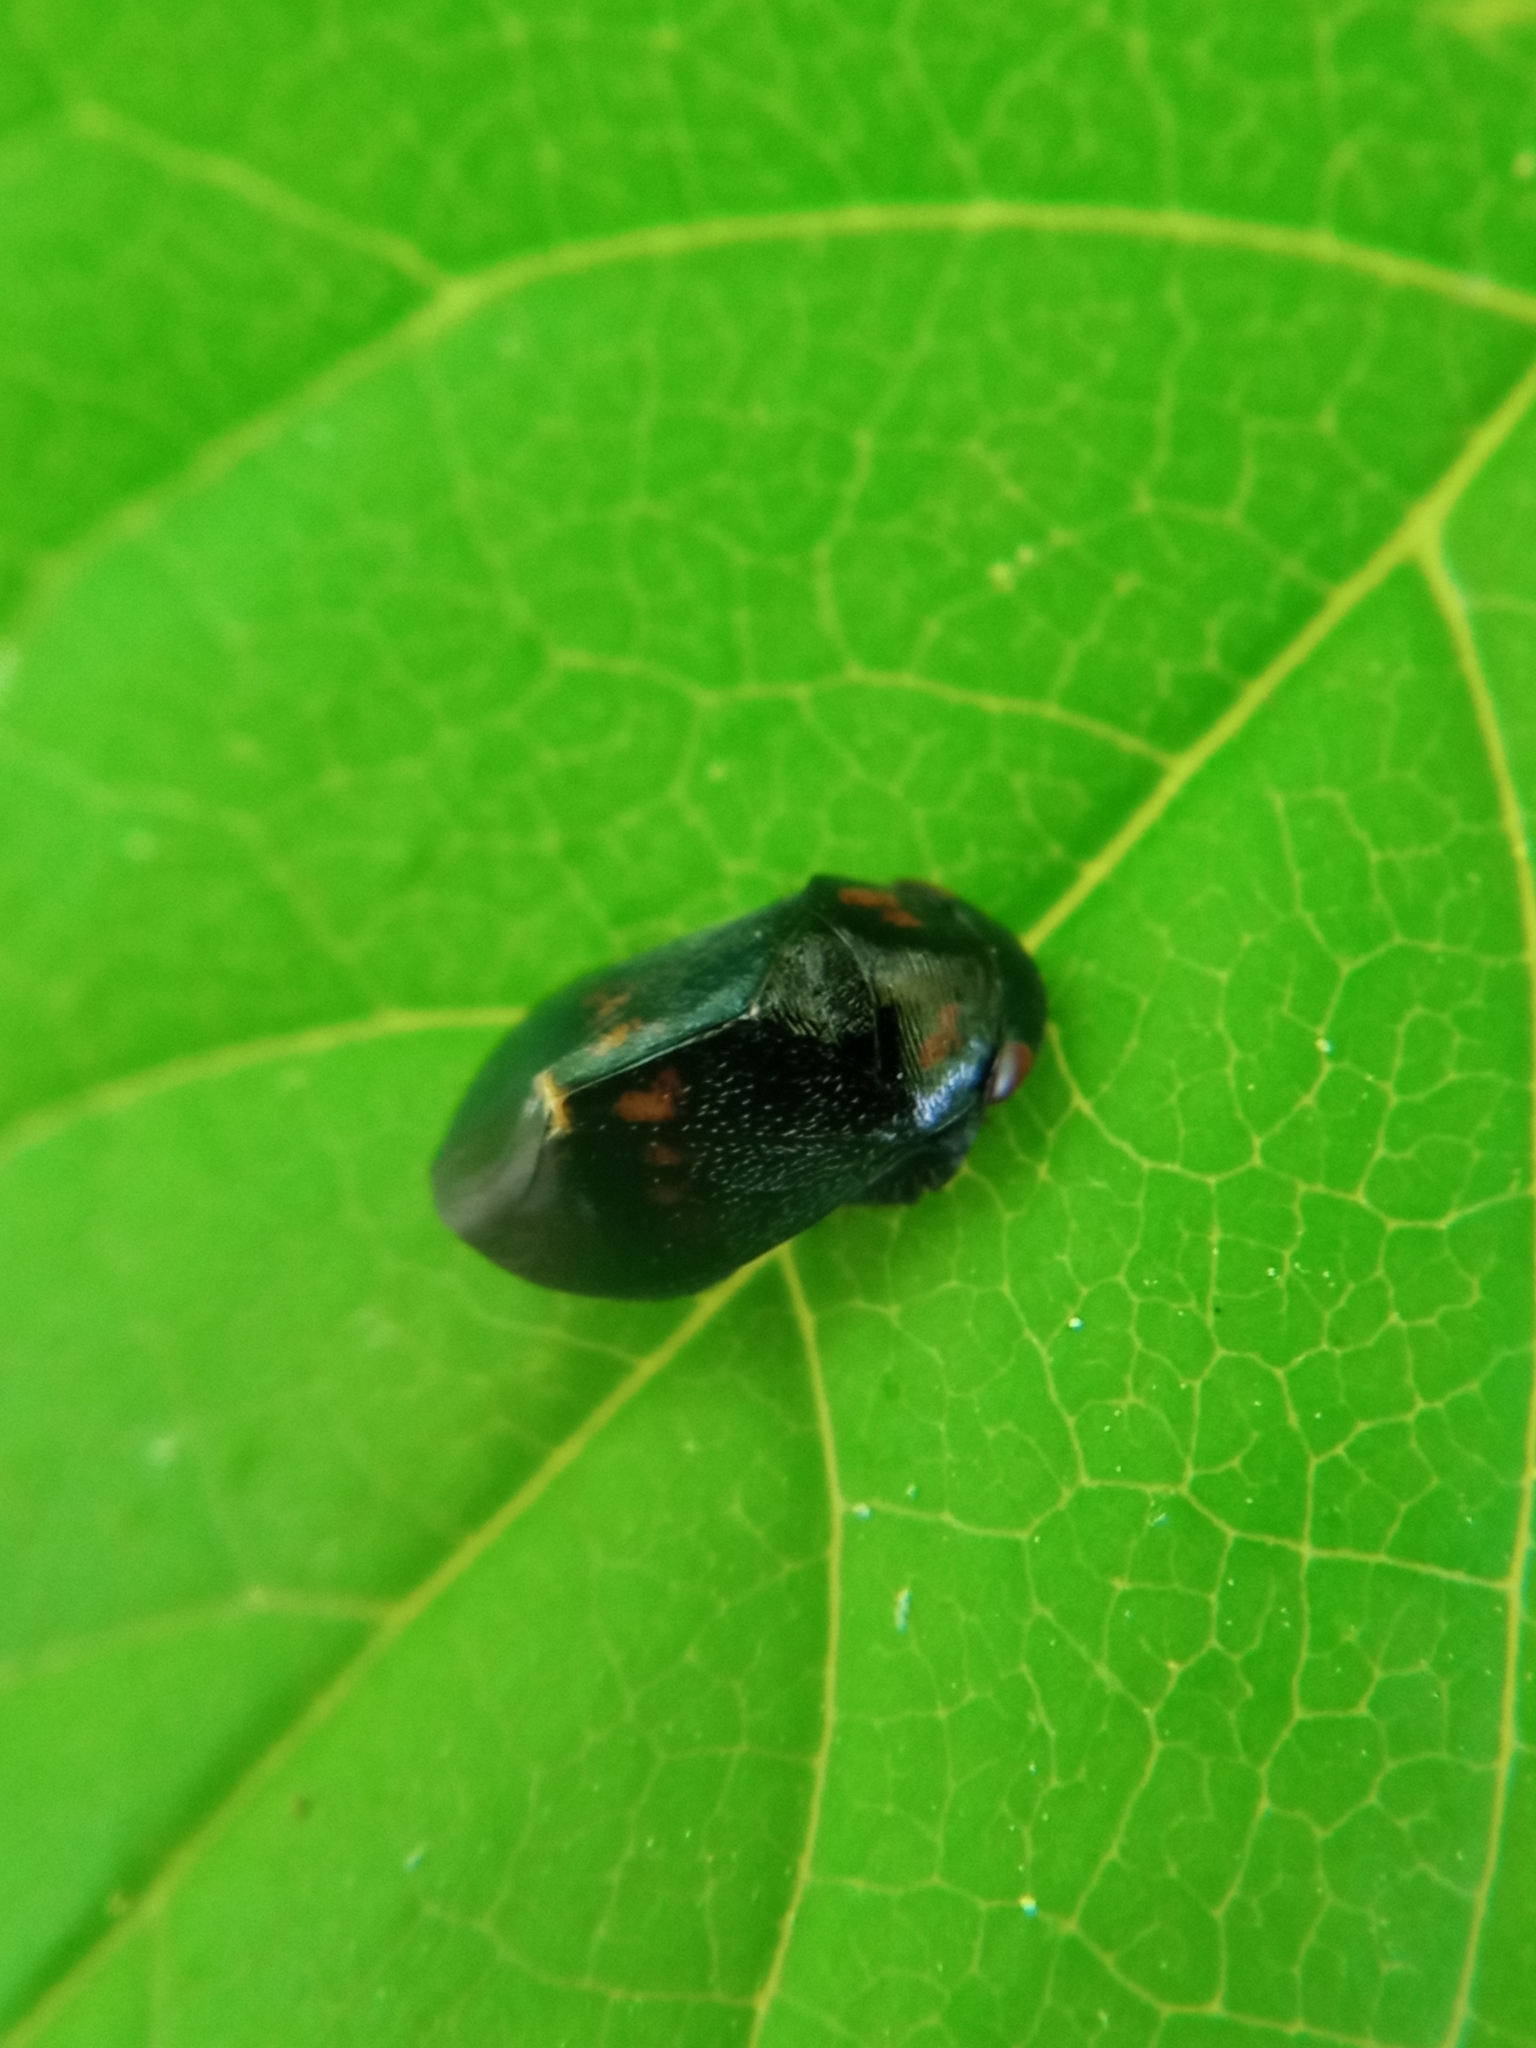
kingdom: Animalia
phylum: Arthropoda
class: Insecta
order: Hemiptera
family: Cicadellidae
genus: Penthimia
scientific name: Penthimia nigra
